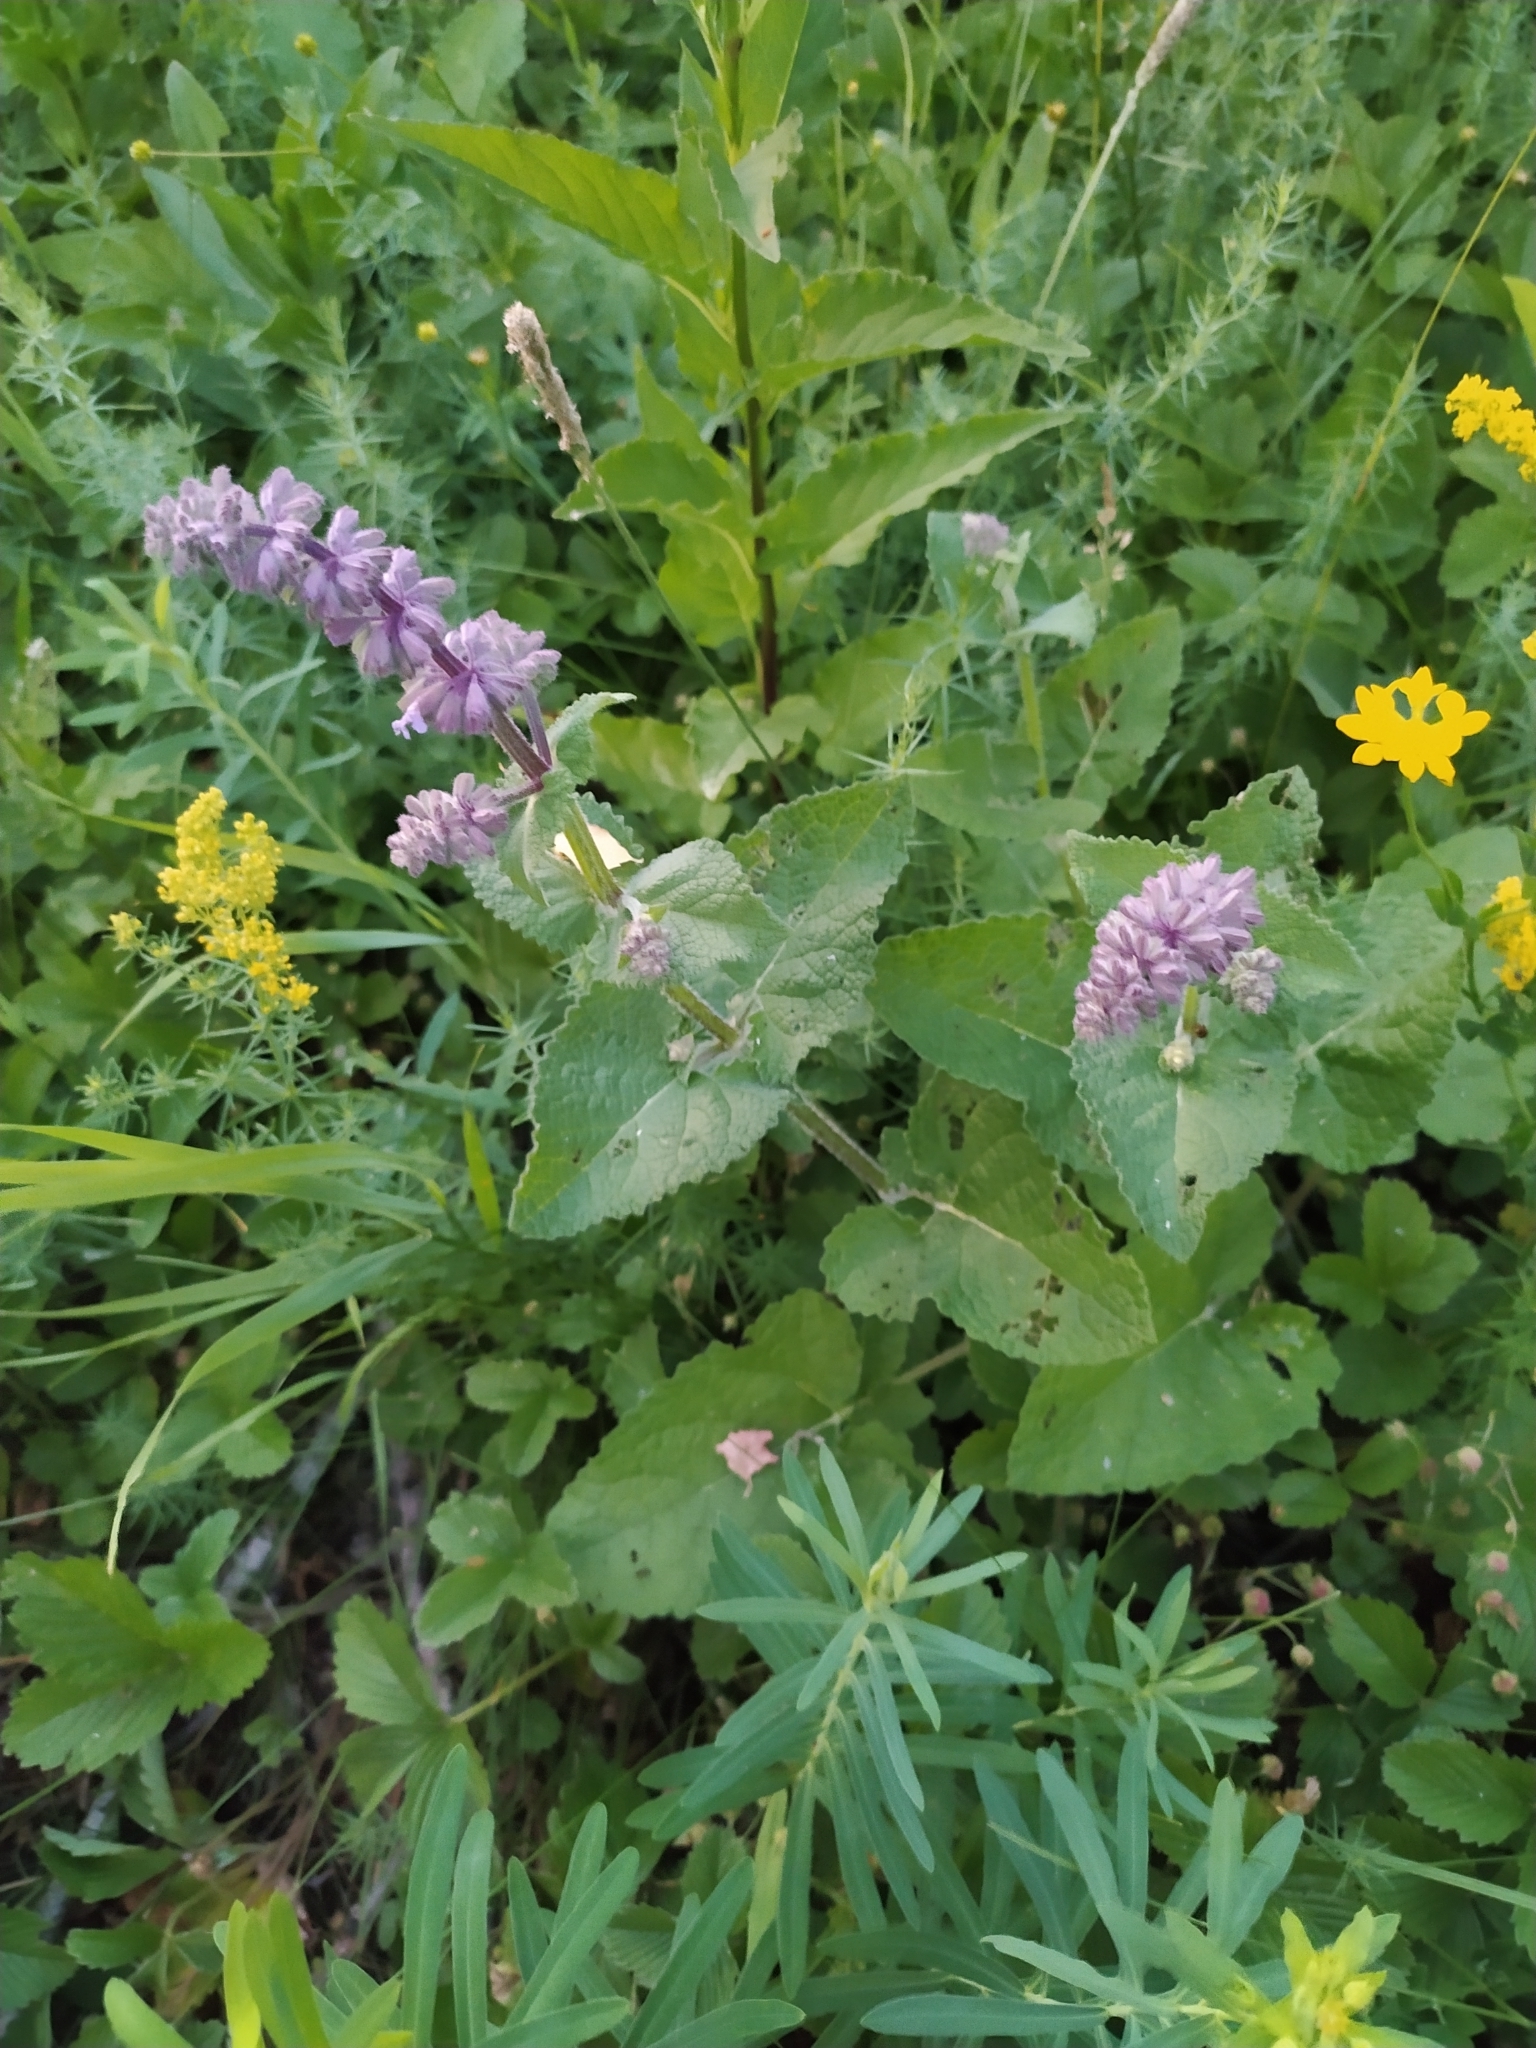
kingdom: Plantae
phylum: Tracheophyta
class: Magnoliopsida
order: Lamiales
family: Lamiaceae
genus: Salvia
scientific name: Salvia verticillata
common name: Whorled clary
